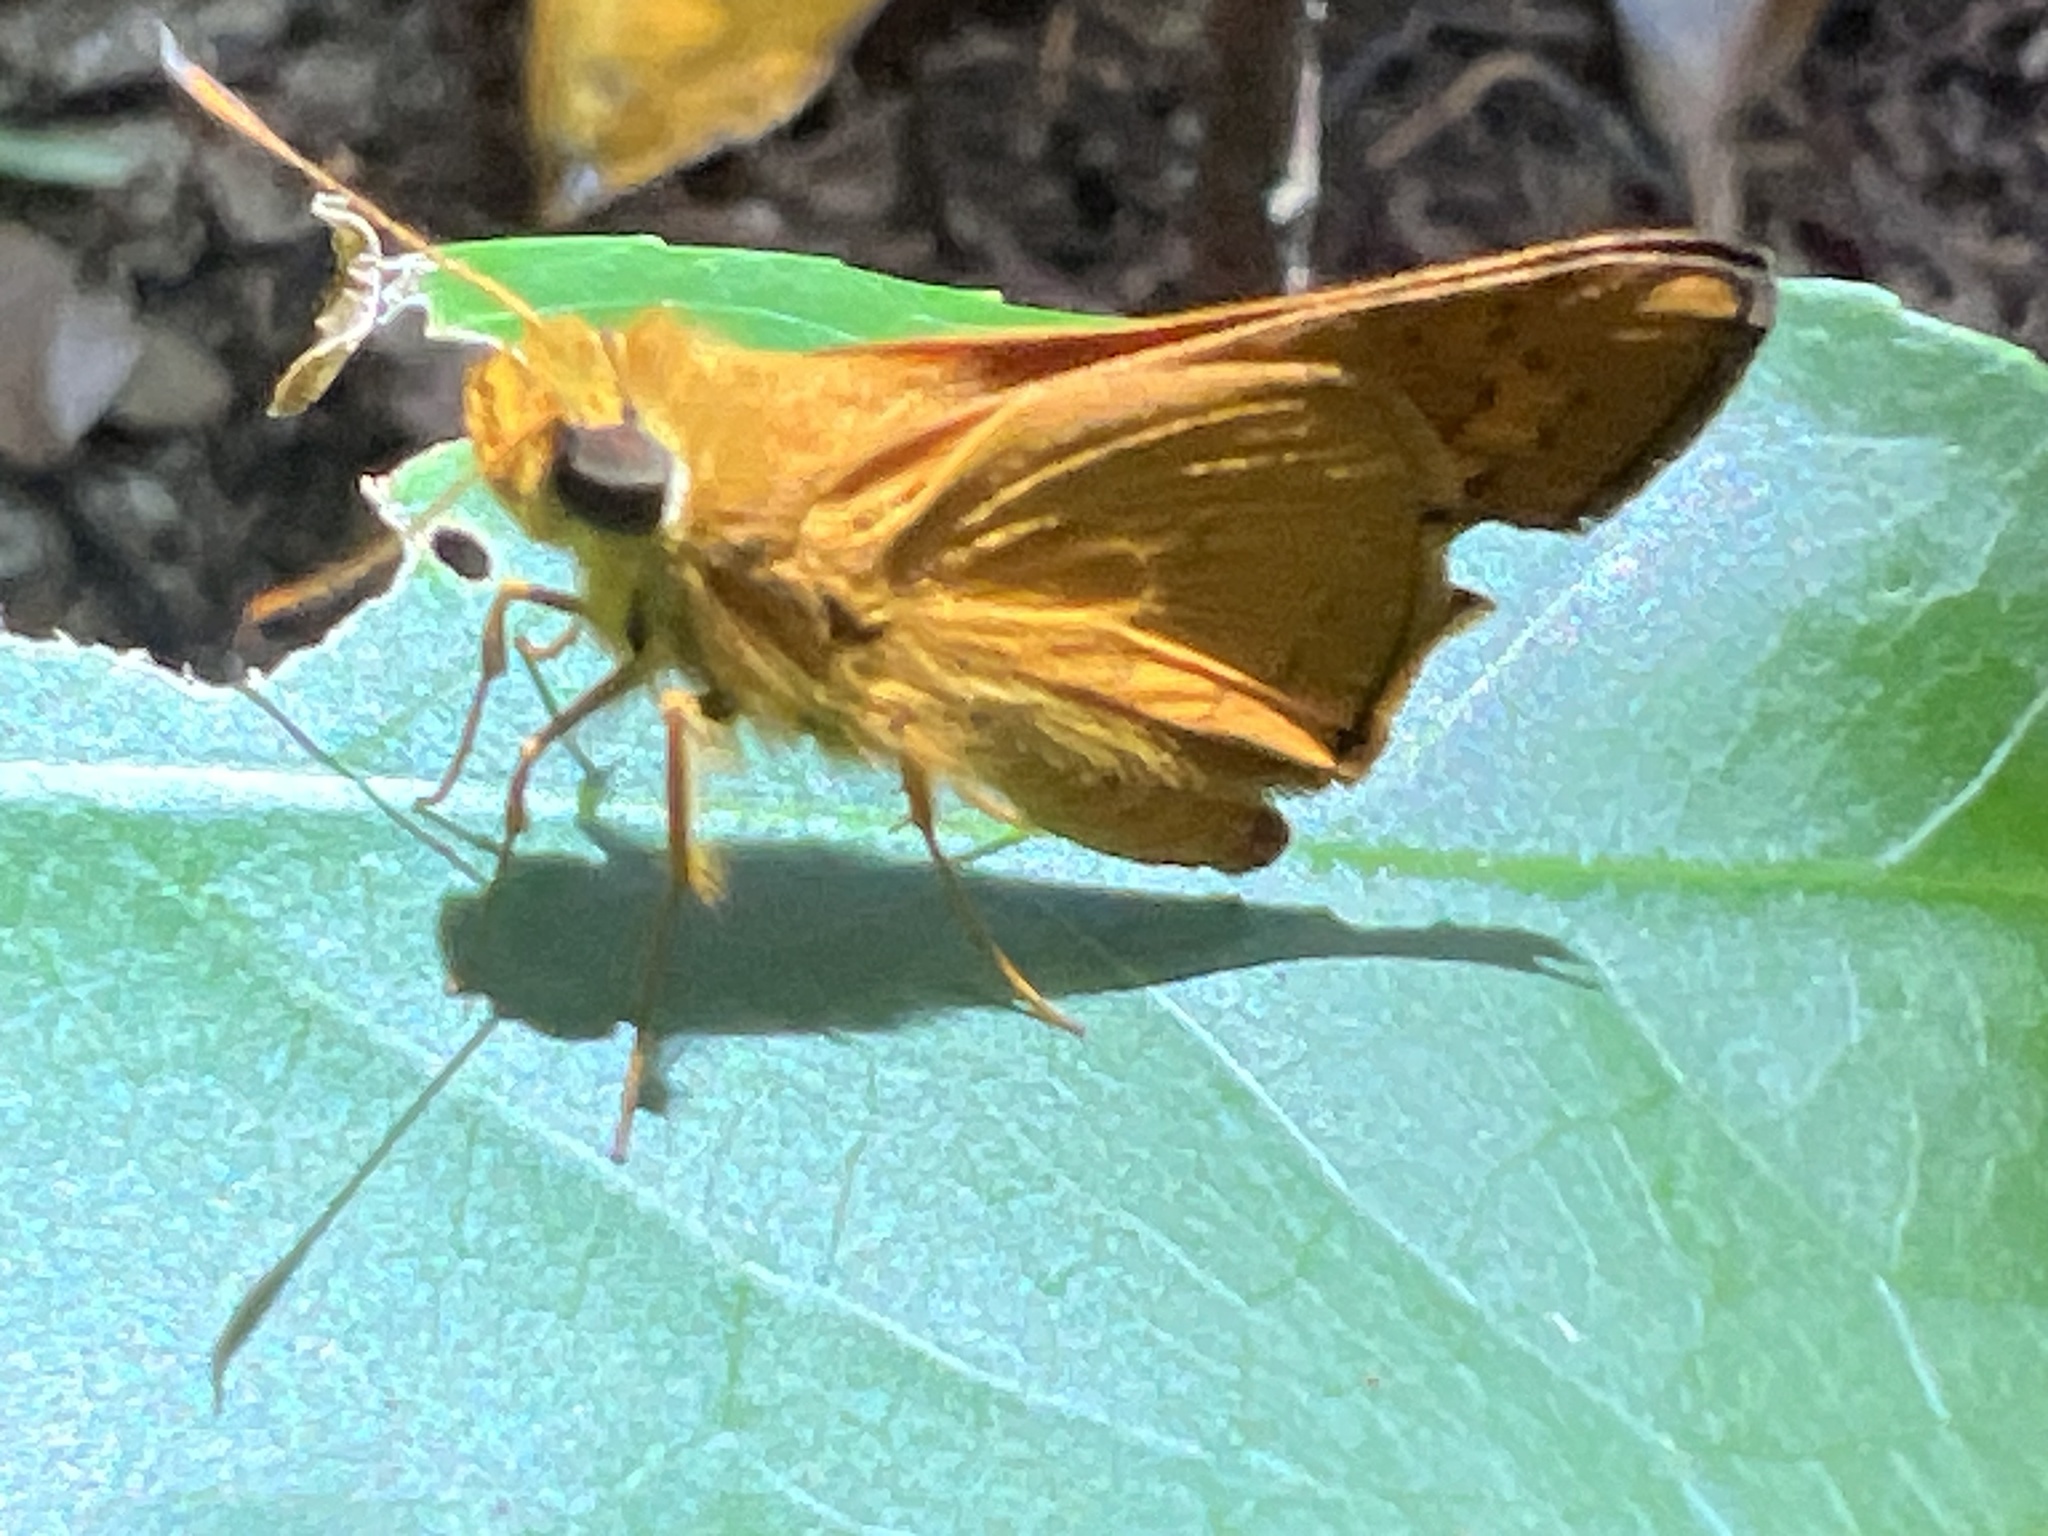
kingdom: Animalia
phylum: Arthropoda
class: Insecta
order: Lepidoptera
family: Hesperiidae
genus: Telicota
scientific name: Telicota augias
